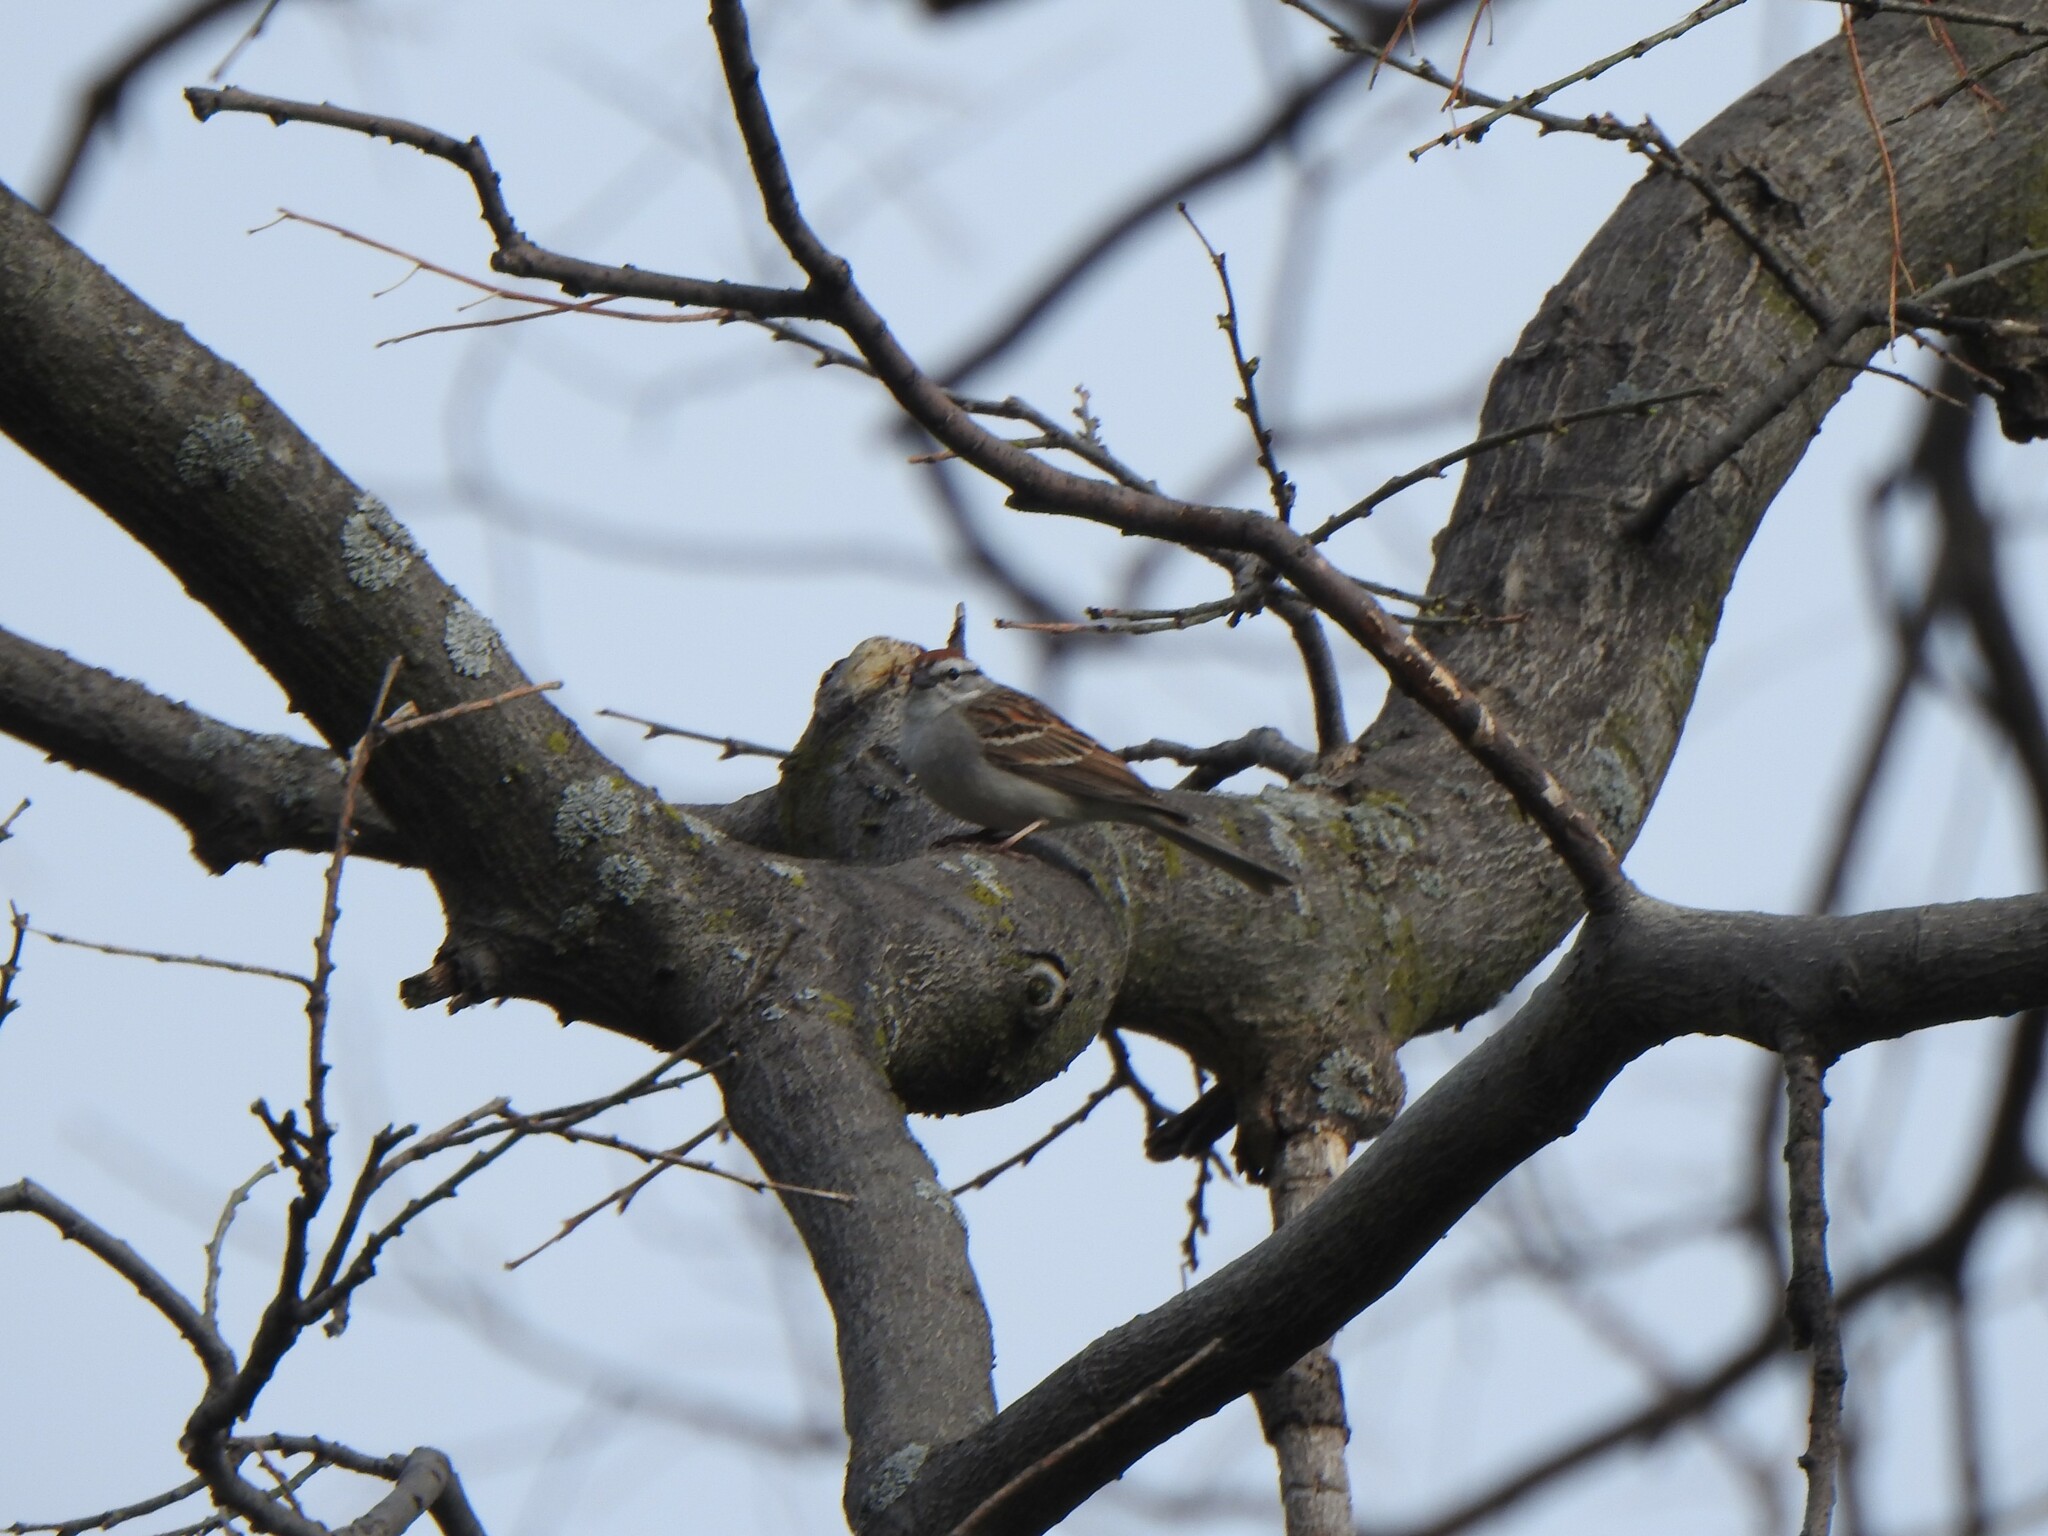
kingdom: Animalia
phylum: Chordata
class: Aves
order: Passeriformes
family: Passerellidae
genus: Spizella
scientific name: Spizella passerina
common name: Chipping sparrow
